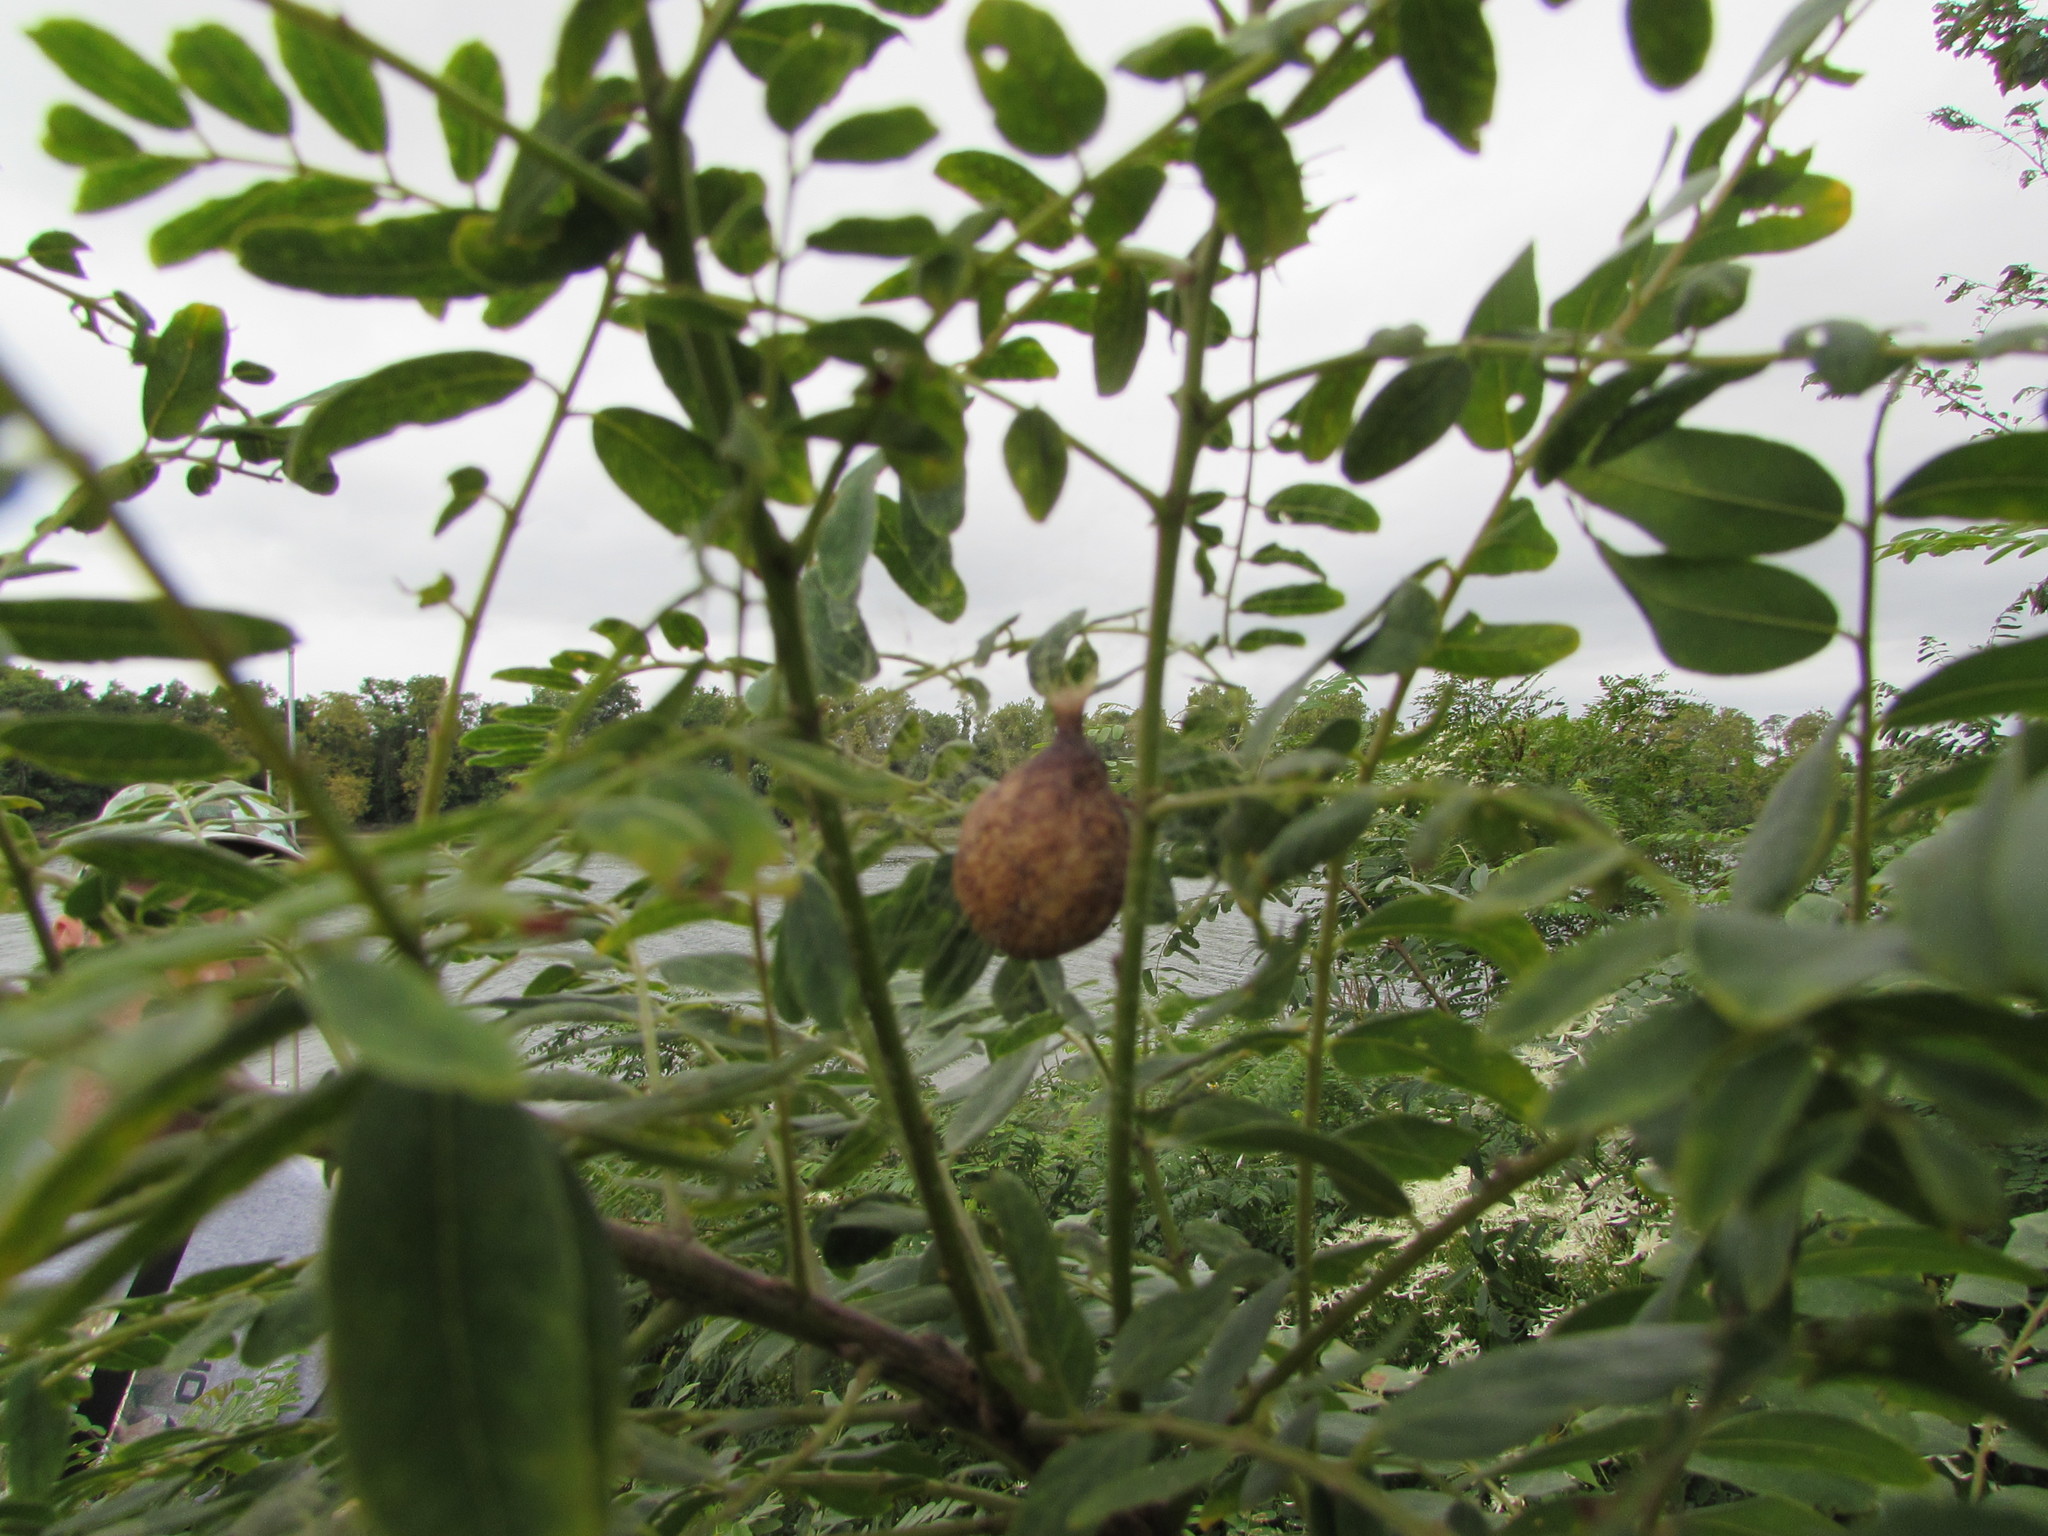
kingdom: Animalia
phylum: Arthropoda
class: Arachnida
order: Araneae
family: Araneidae
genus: Argiope
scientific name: Argiope aurantia
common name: Orb weavers
